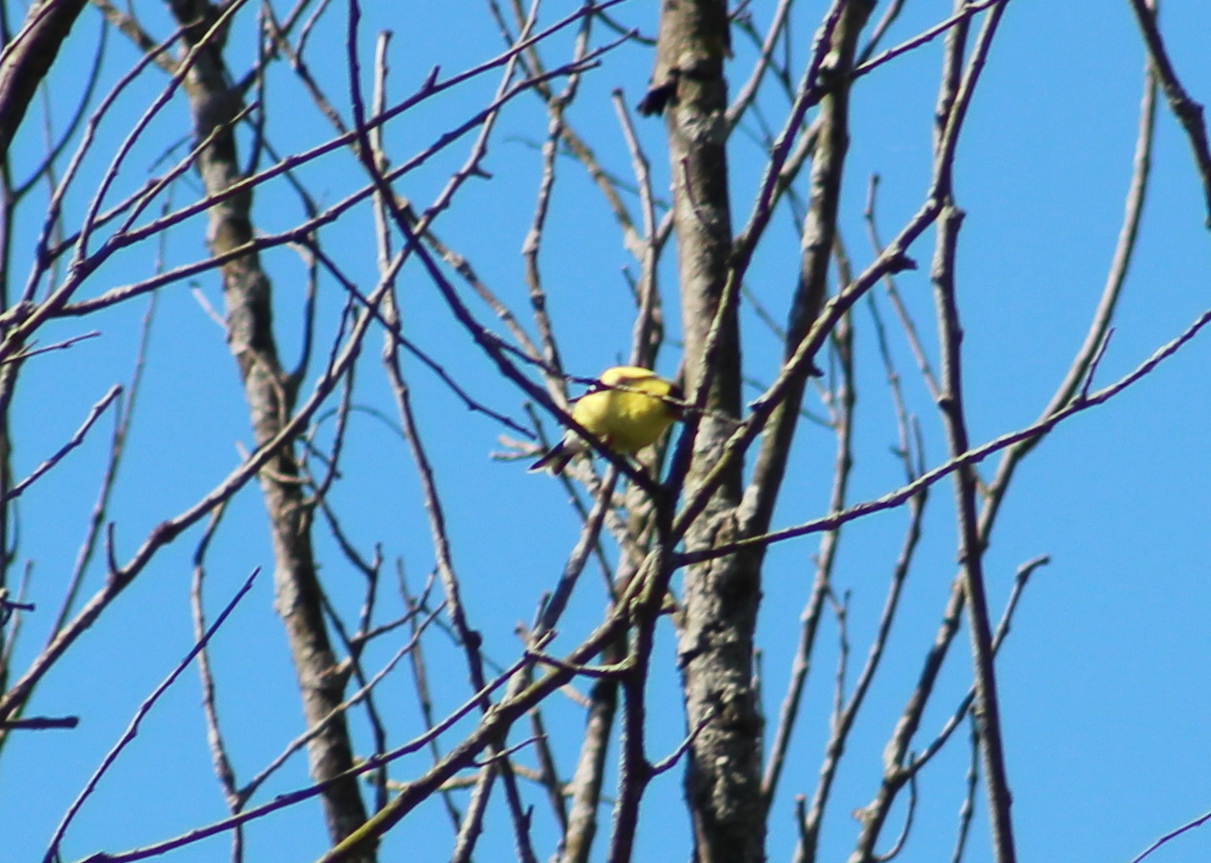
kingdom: Animalia
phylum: Chordata
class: Aves
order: Passeriformes
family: Fringillidae
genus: Spinus
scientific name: Spinus tristis
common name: American goldfinch
